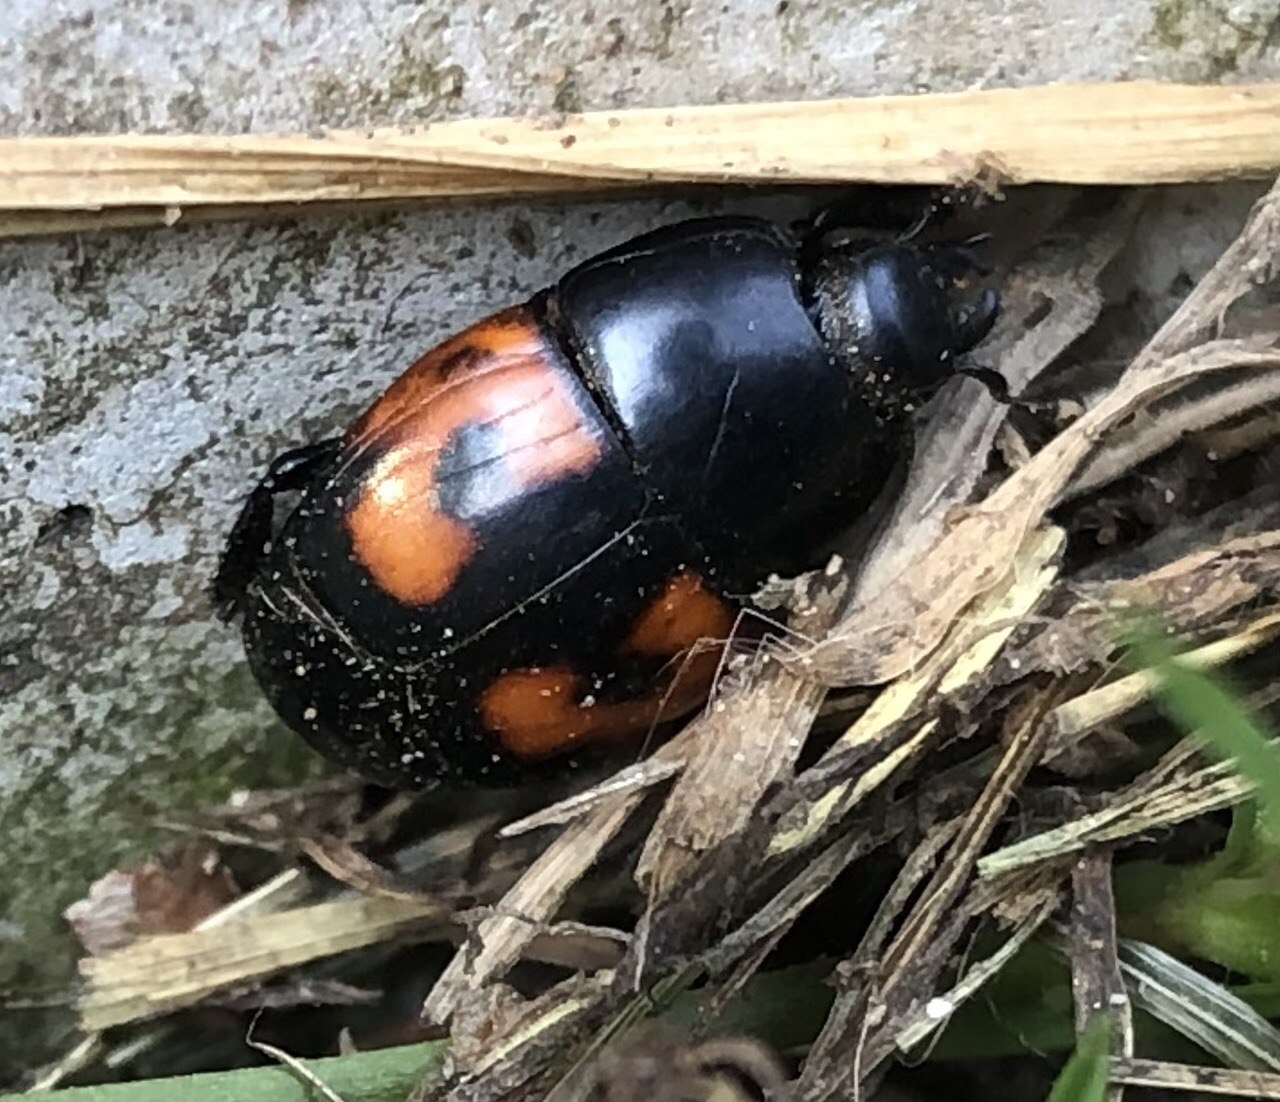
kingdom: Animalia
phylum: Arthropoda
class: Insecta
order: Coleoptera
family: Histeridae
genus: Hister
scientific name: Hister quadrimaculatus
